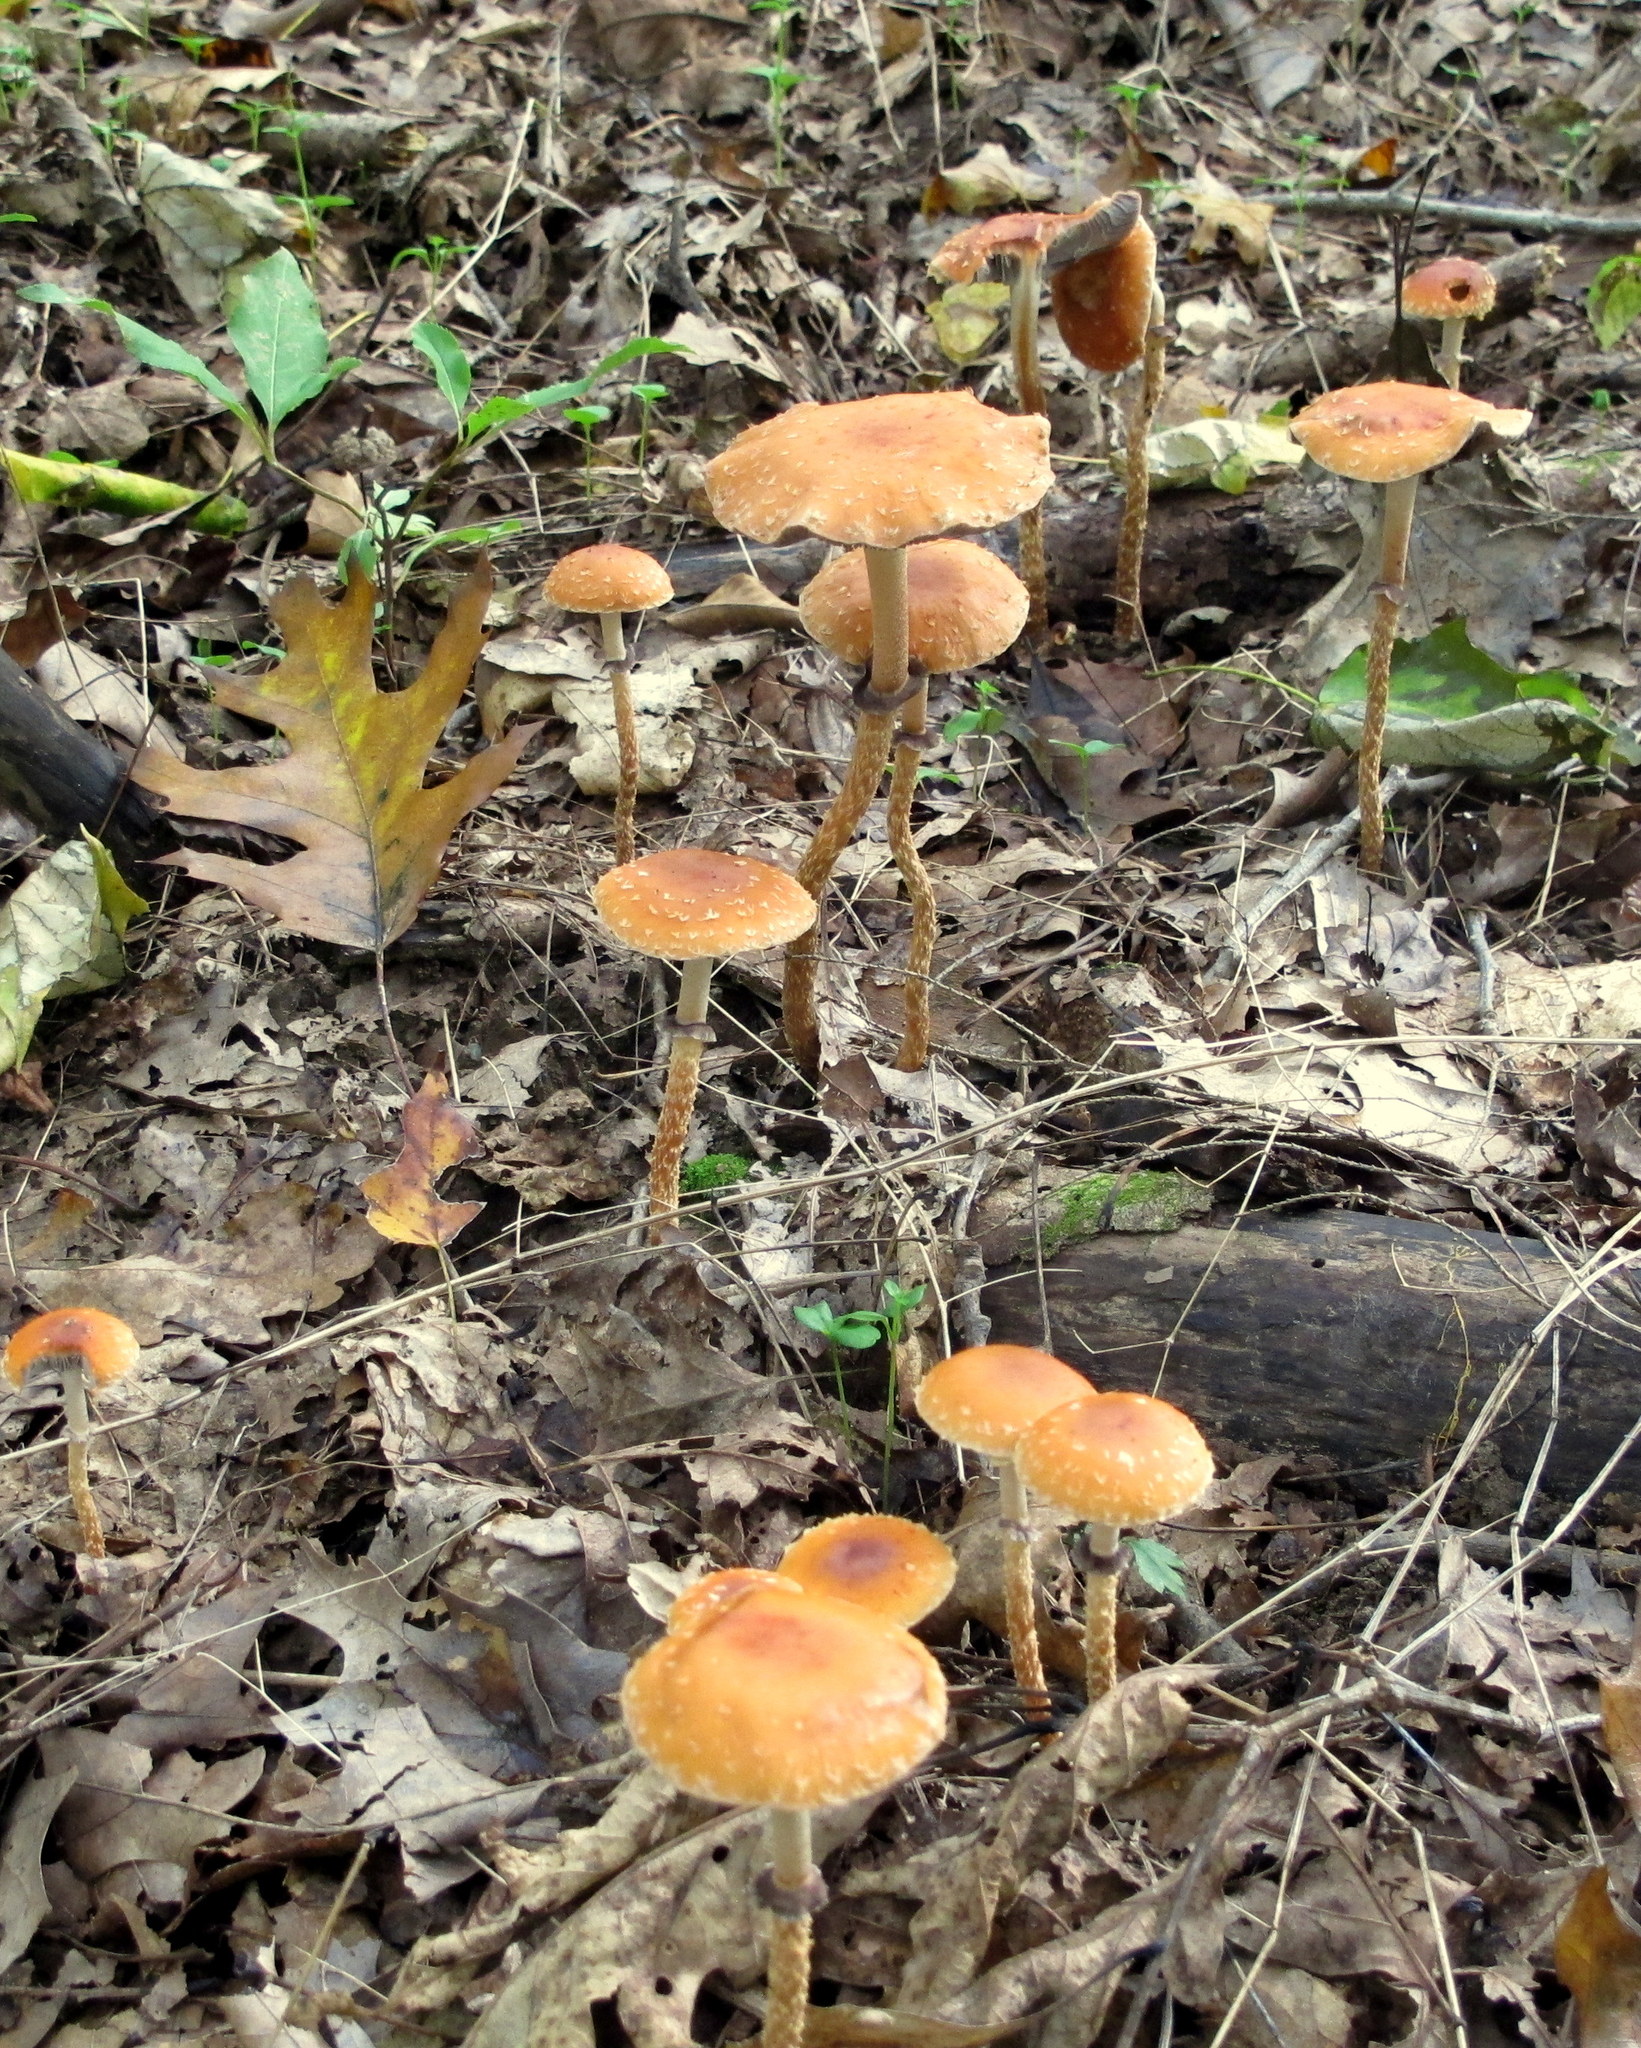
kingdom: Fungi
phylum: Basidiomycota
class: Agaricomycetes
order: Agaricales
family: Strophariaceae
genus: Leratiomyces
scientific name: Leratiomyces squamosus
